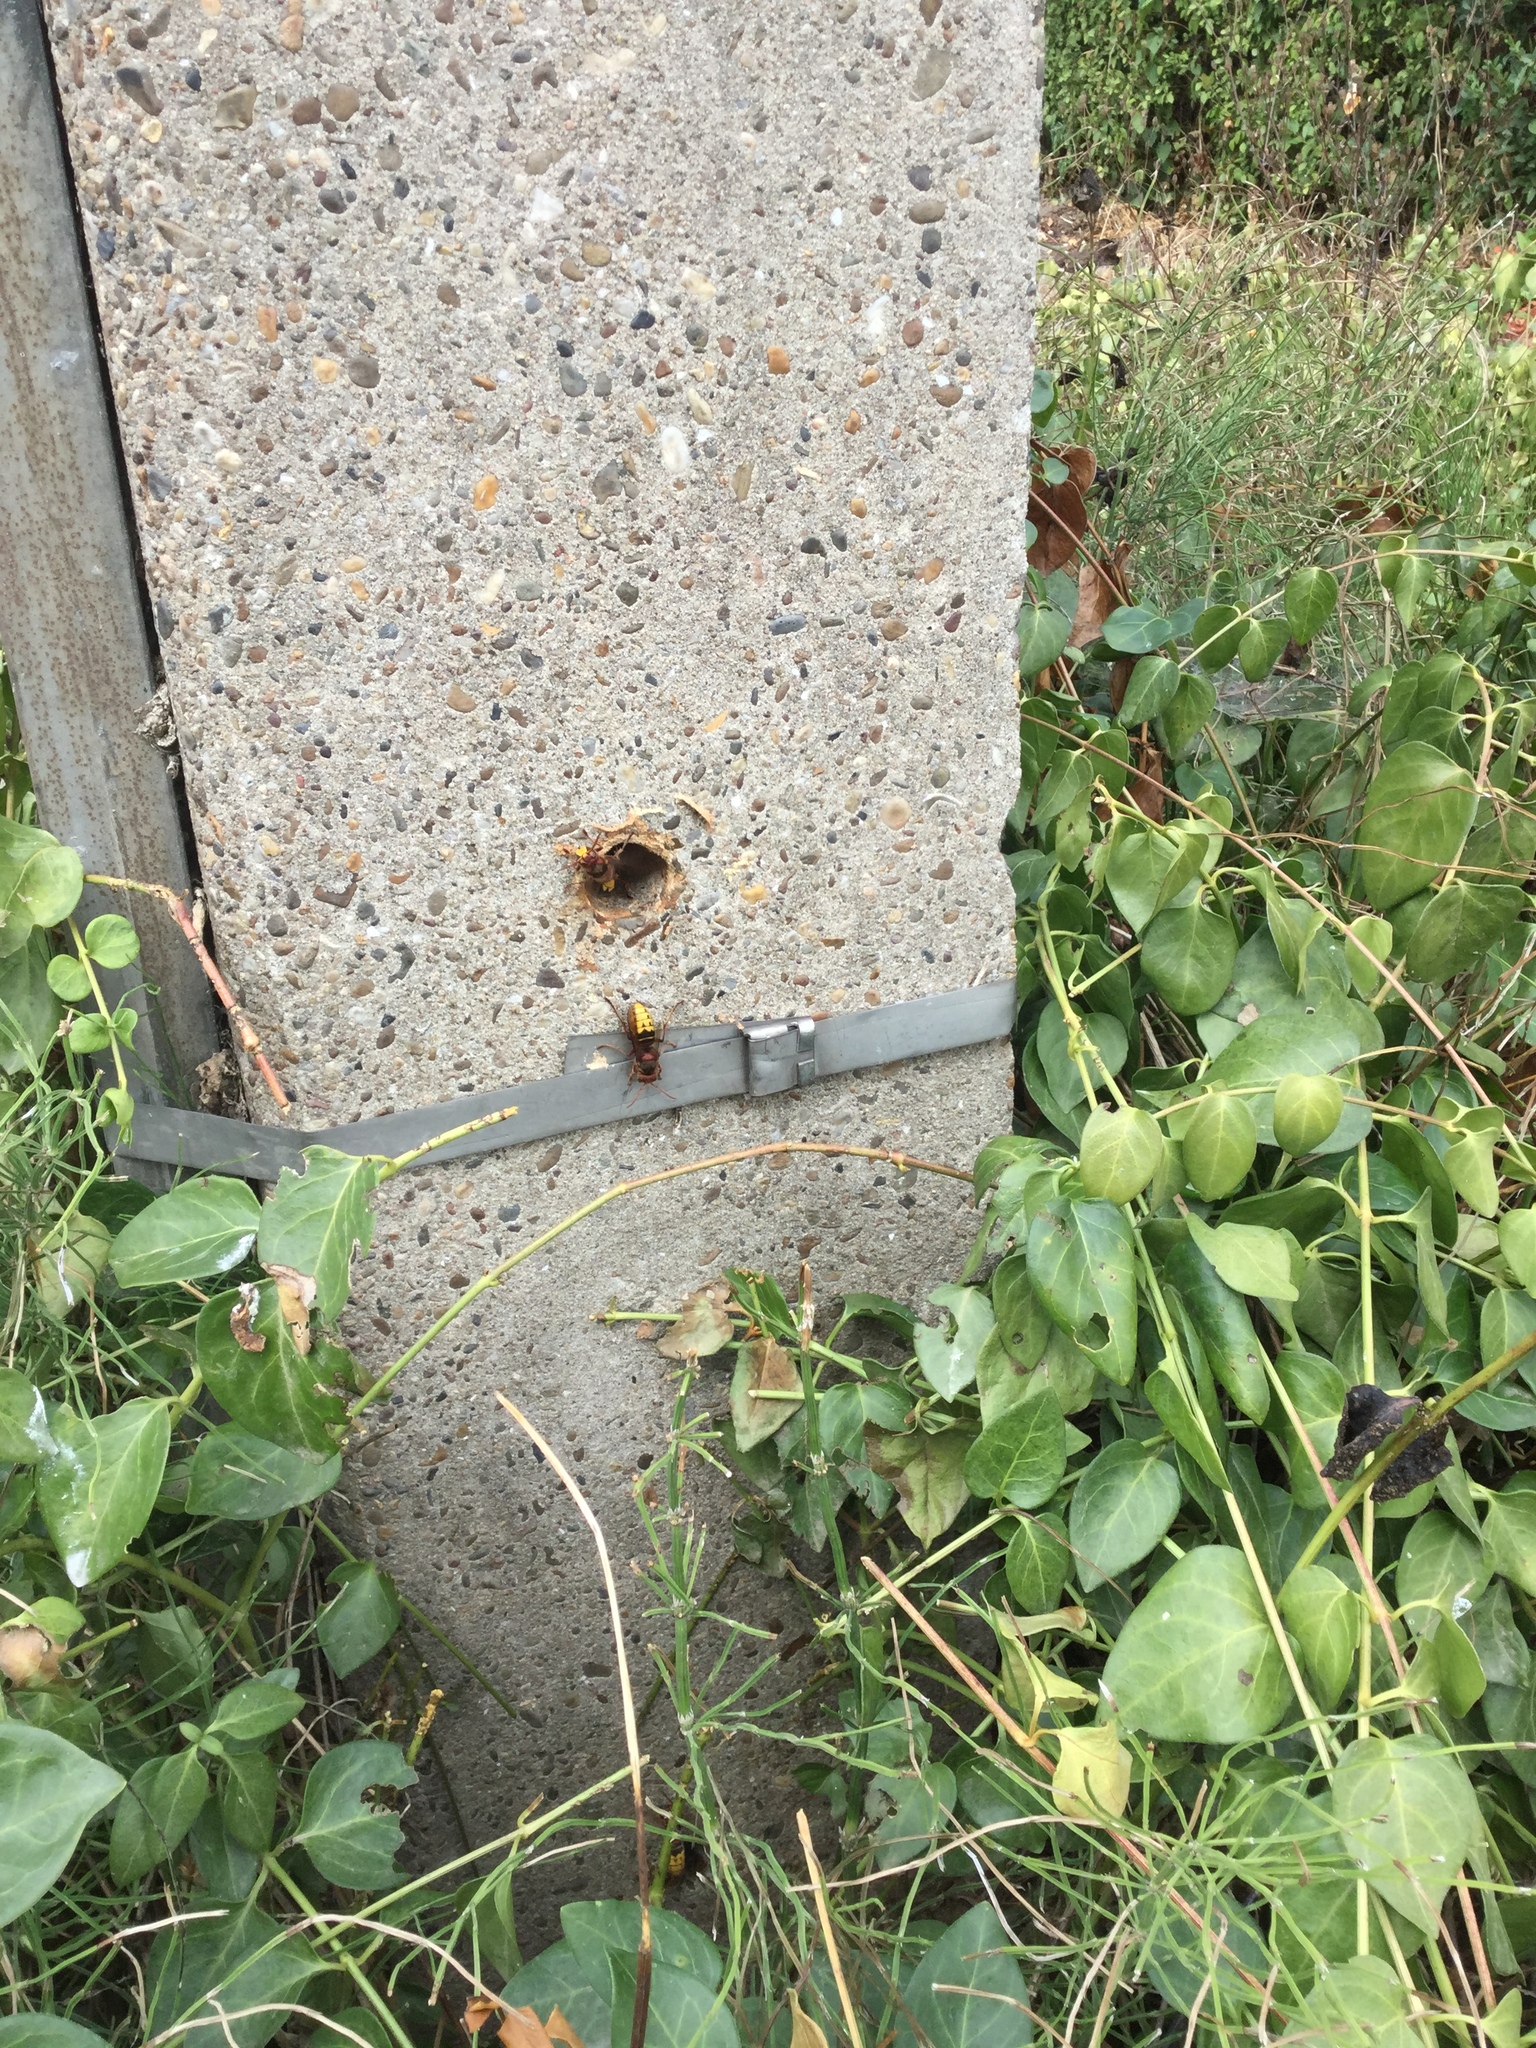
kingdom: Animalia
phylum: Arthropoda
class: Insecta
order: Hymenoptera
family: Vespidae
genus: Vespa
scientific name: Vespa crabro
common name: Hornet
